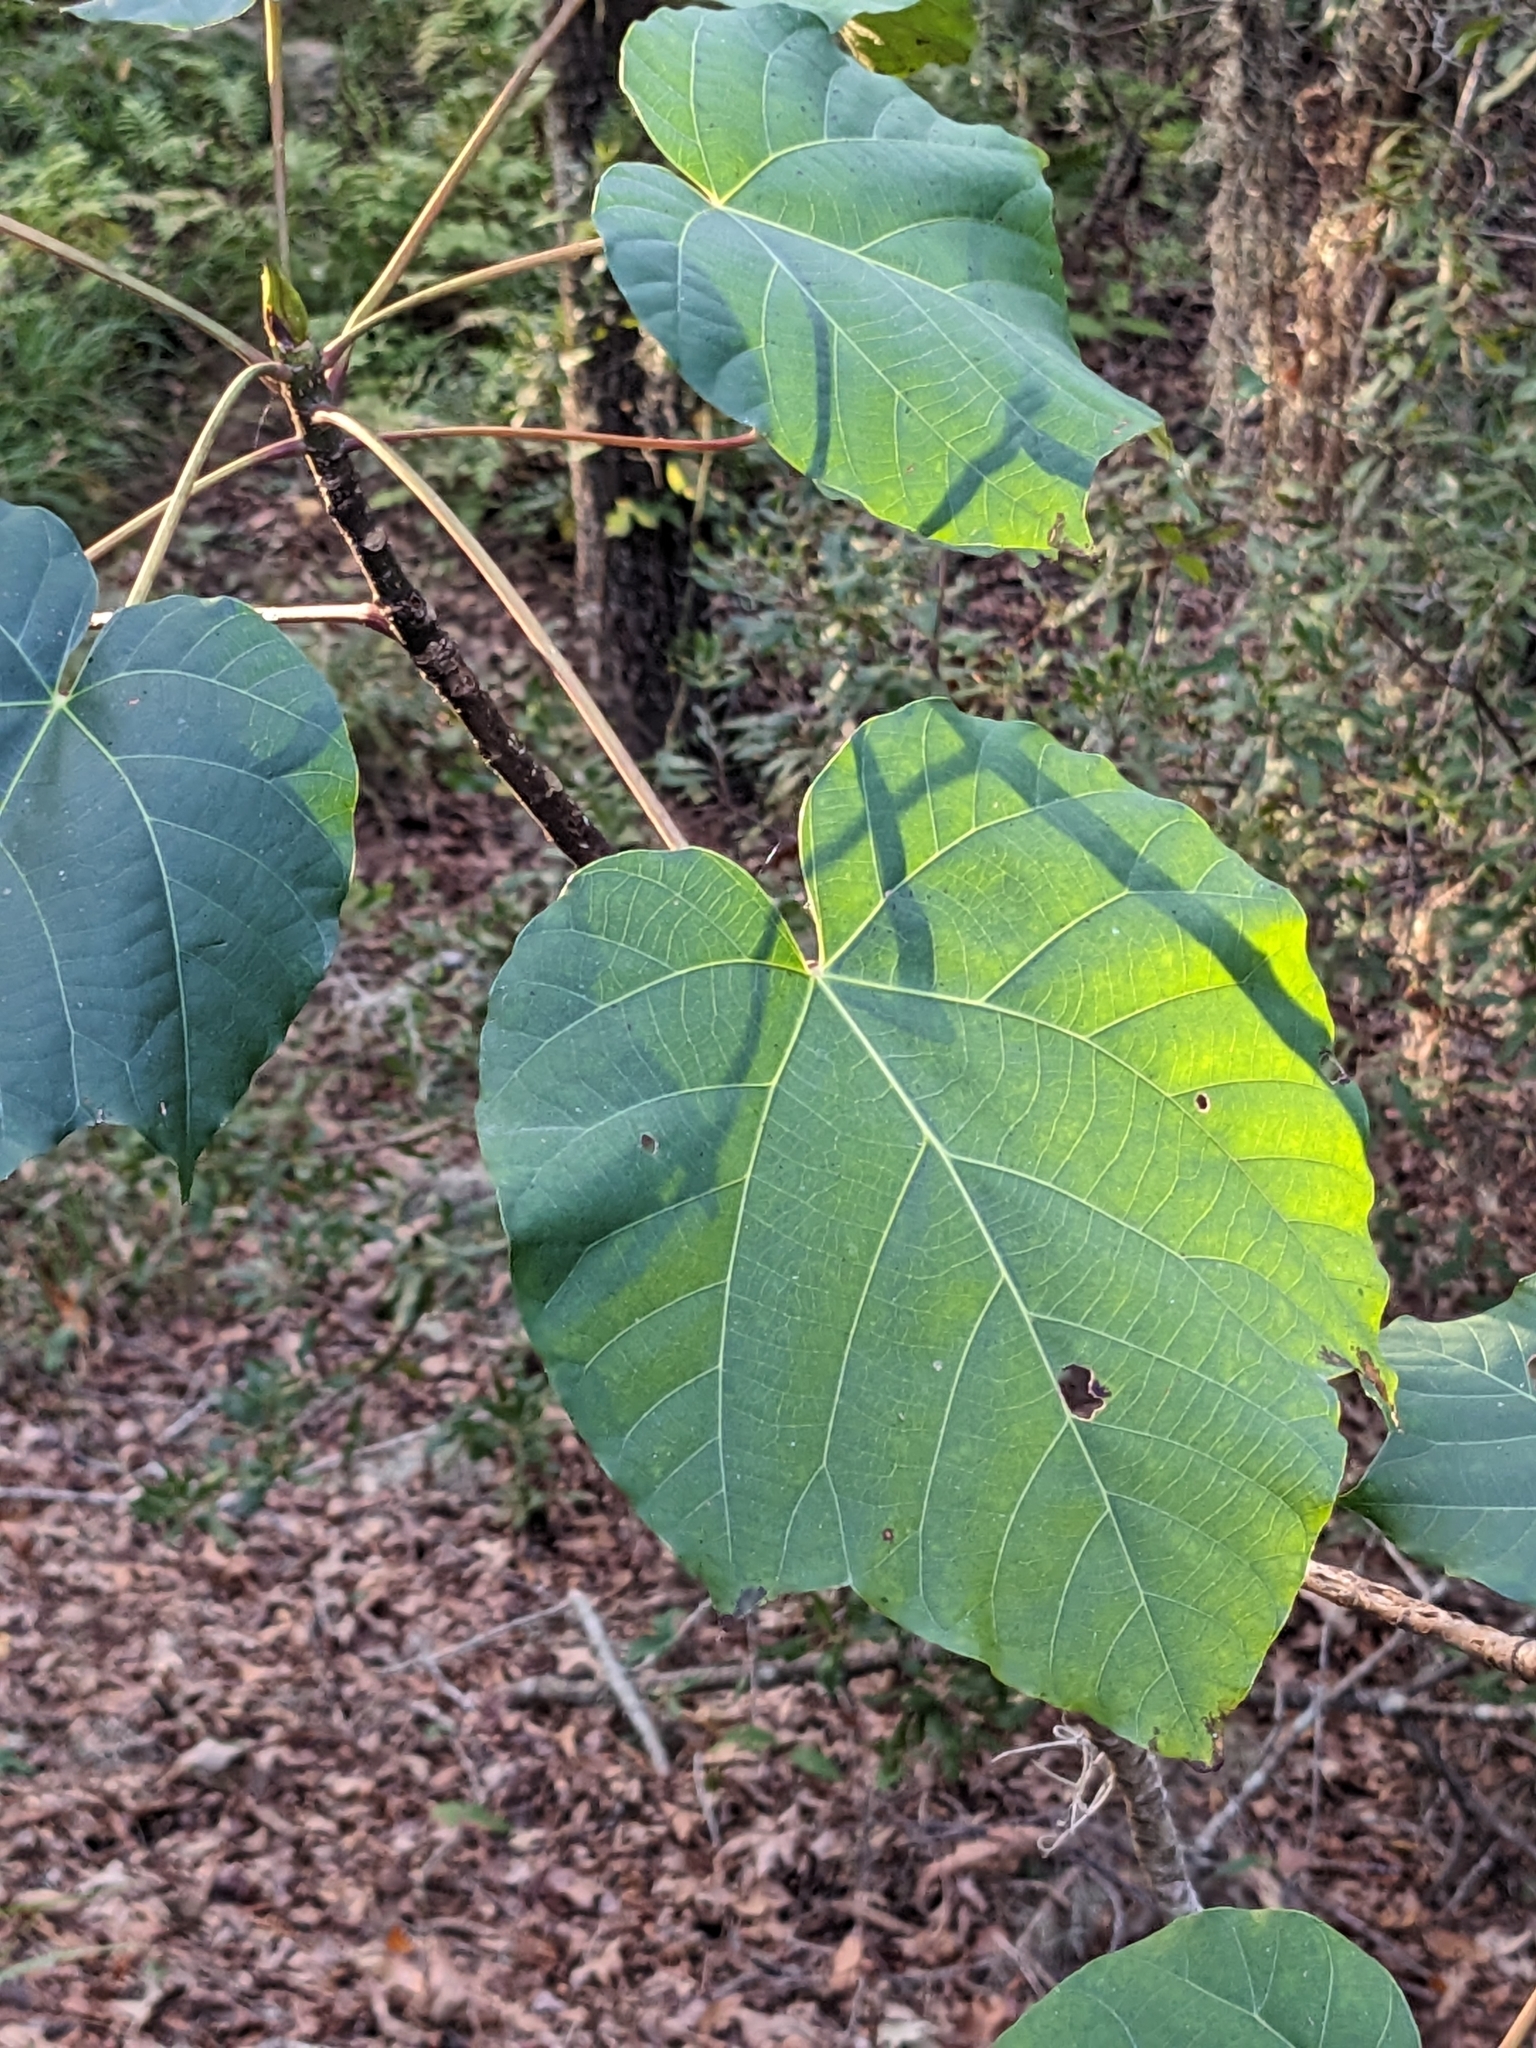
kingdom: Plantae
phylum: Tracheophyta
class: Magnoliopsida
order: Malpighiales
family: Euphorbiaceae
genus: Vernicia
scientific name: Vernicia fordii
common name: Tungoil tree
